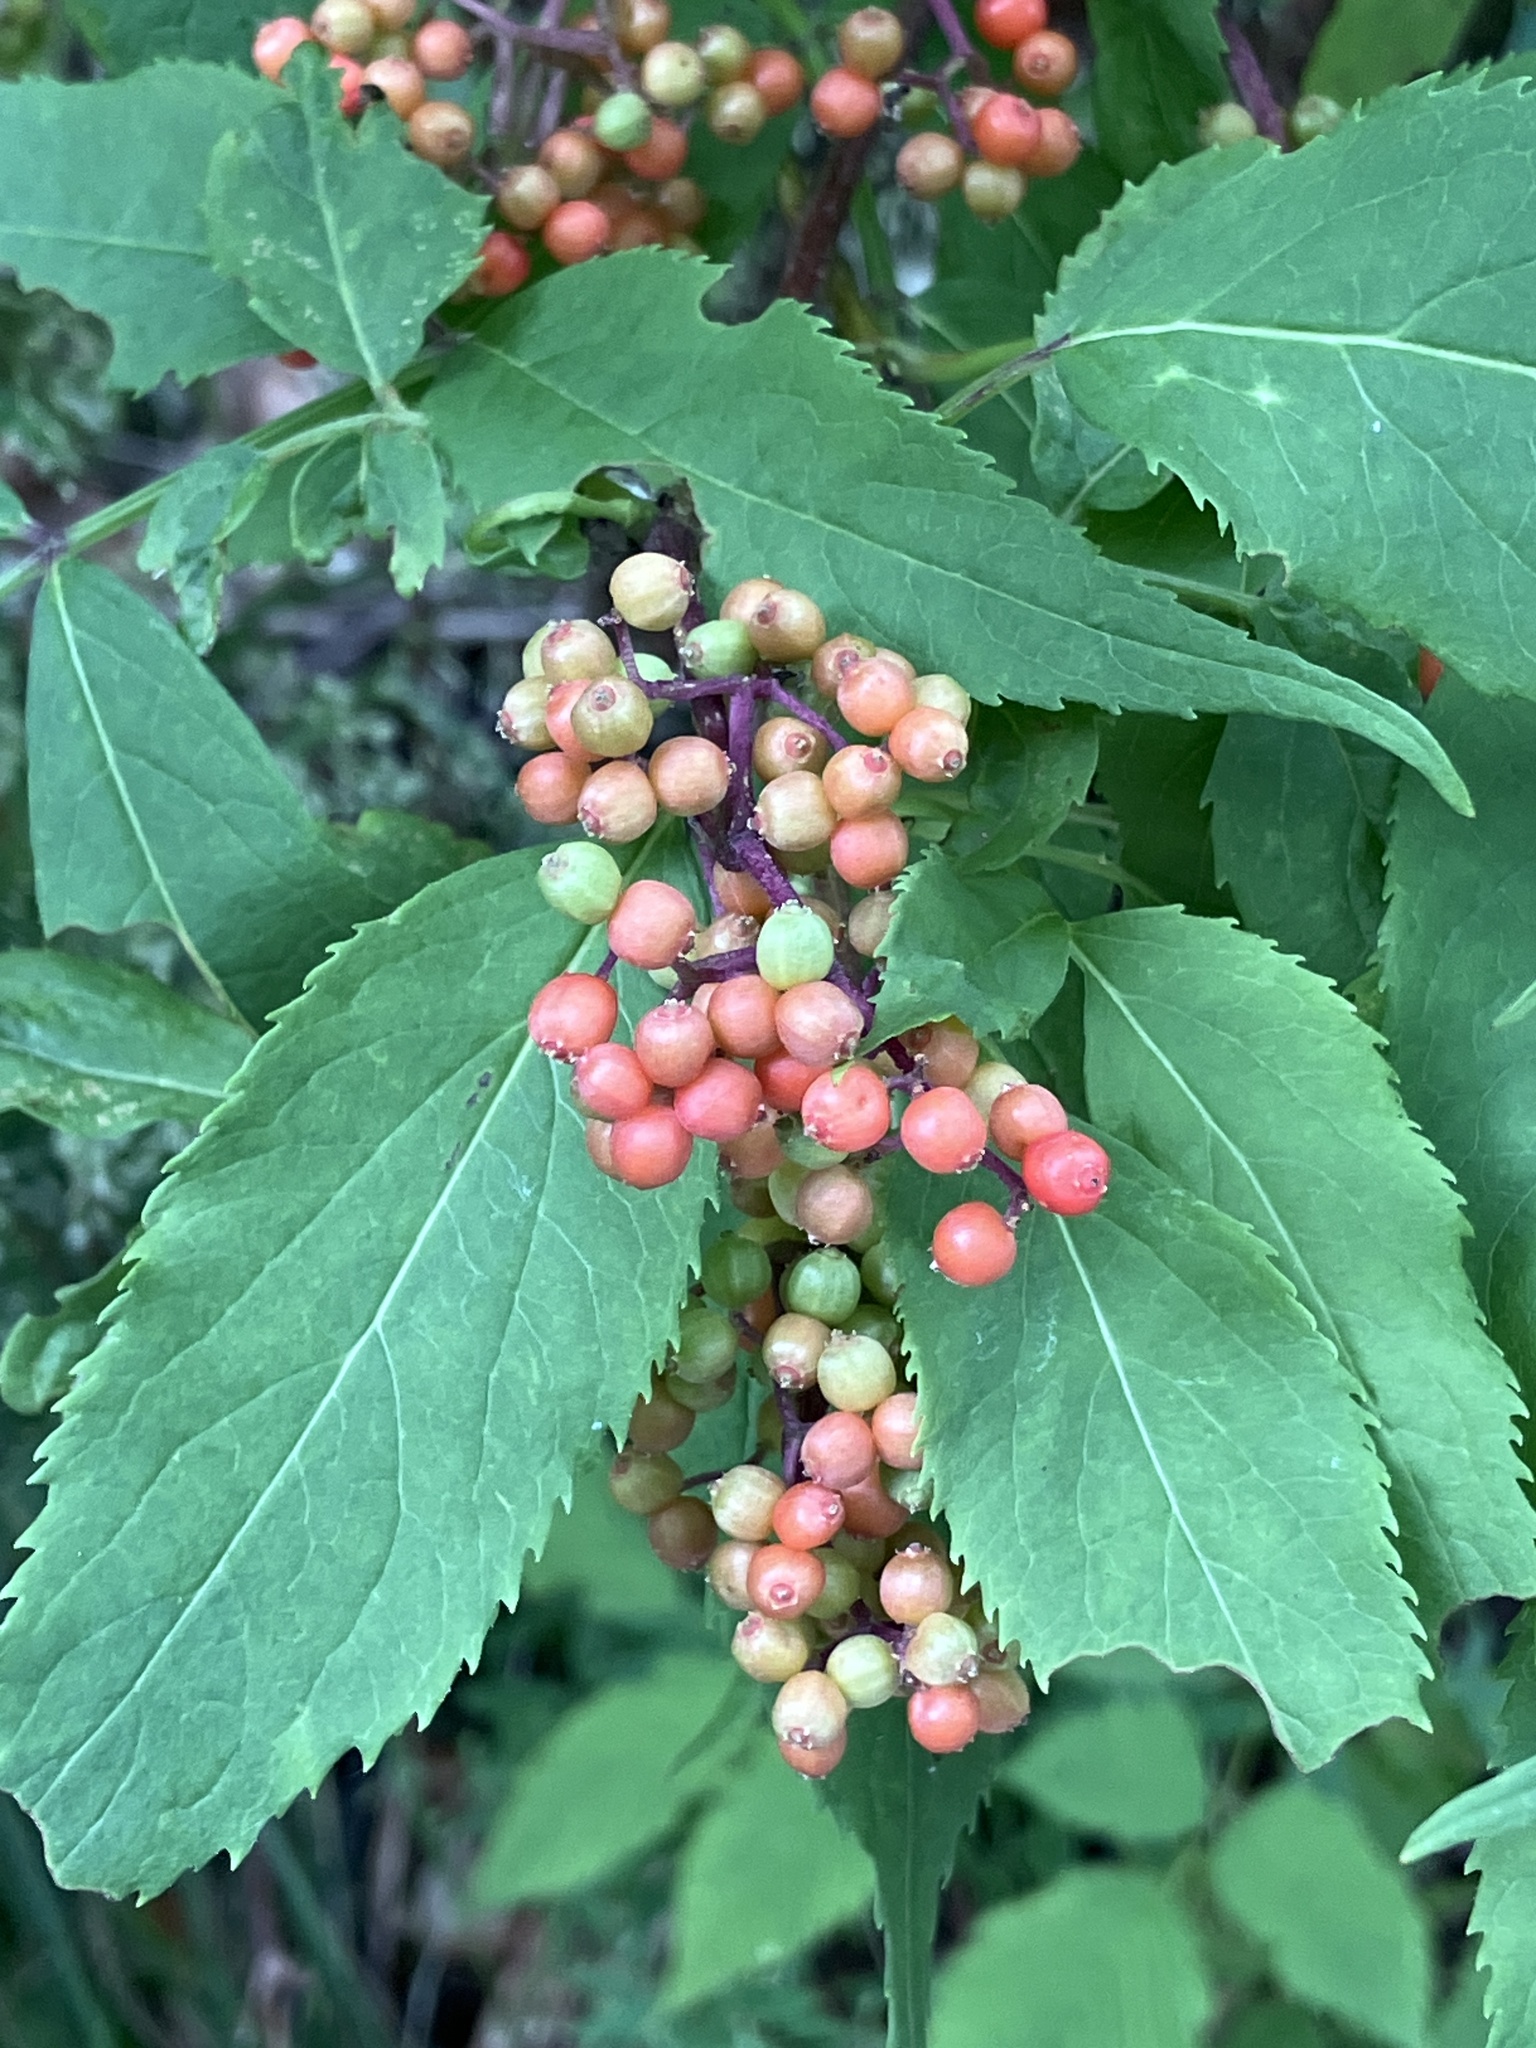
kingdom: Plantae
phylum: Tracheophyta
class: Magnoliopsida
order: Dipsacales
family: Viburnaceae
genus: Sambucus
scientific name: Sambucus racemosa
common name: Red-berried elder
